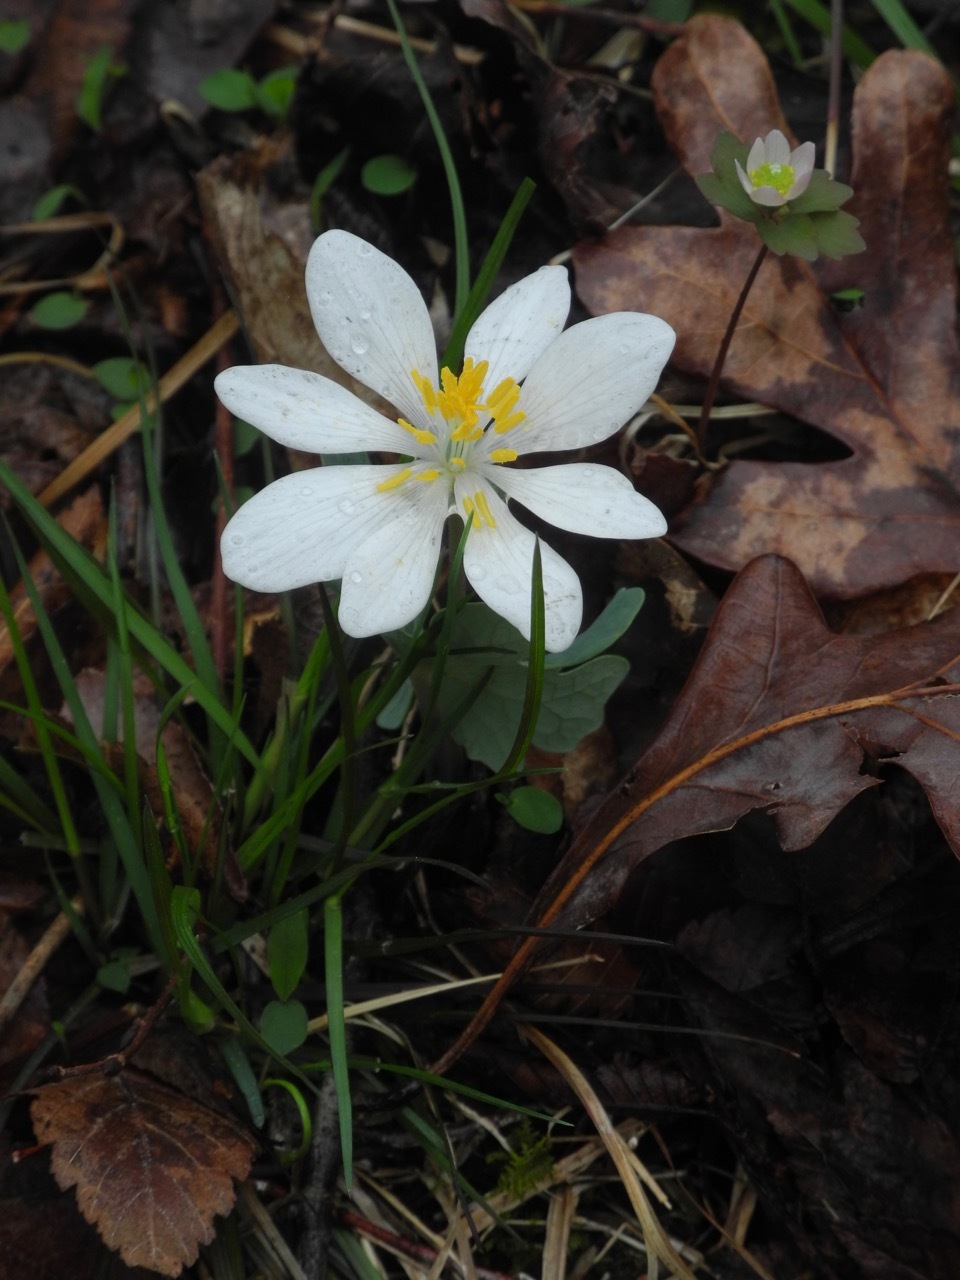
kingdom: Plantae
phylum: Tracheophyta
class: Magnoliopsida
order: Ranunculales
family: Papaveraceae
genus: Sanguinaria
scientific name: Sanguinaria canadensis
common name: Bloodroot
